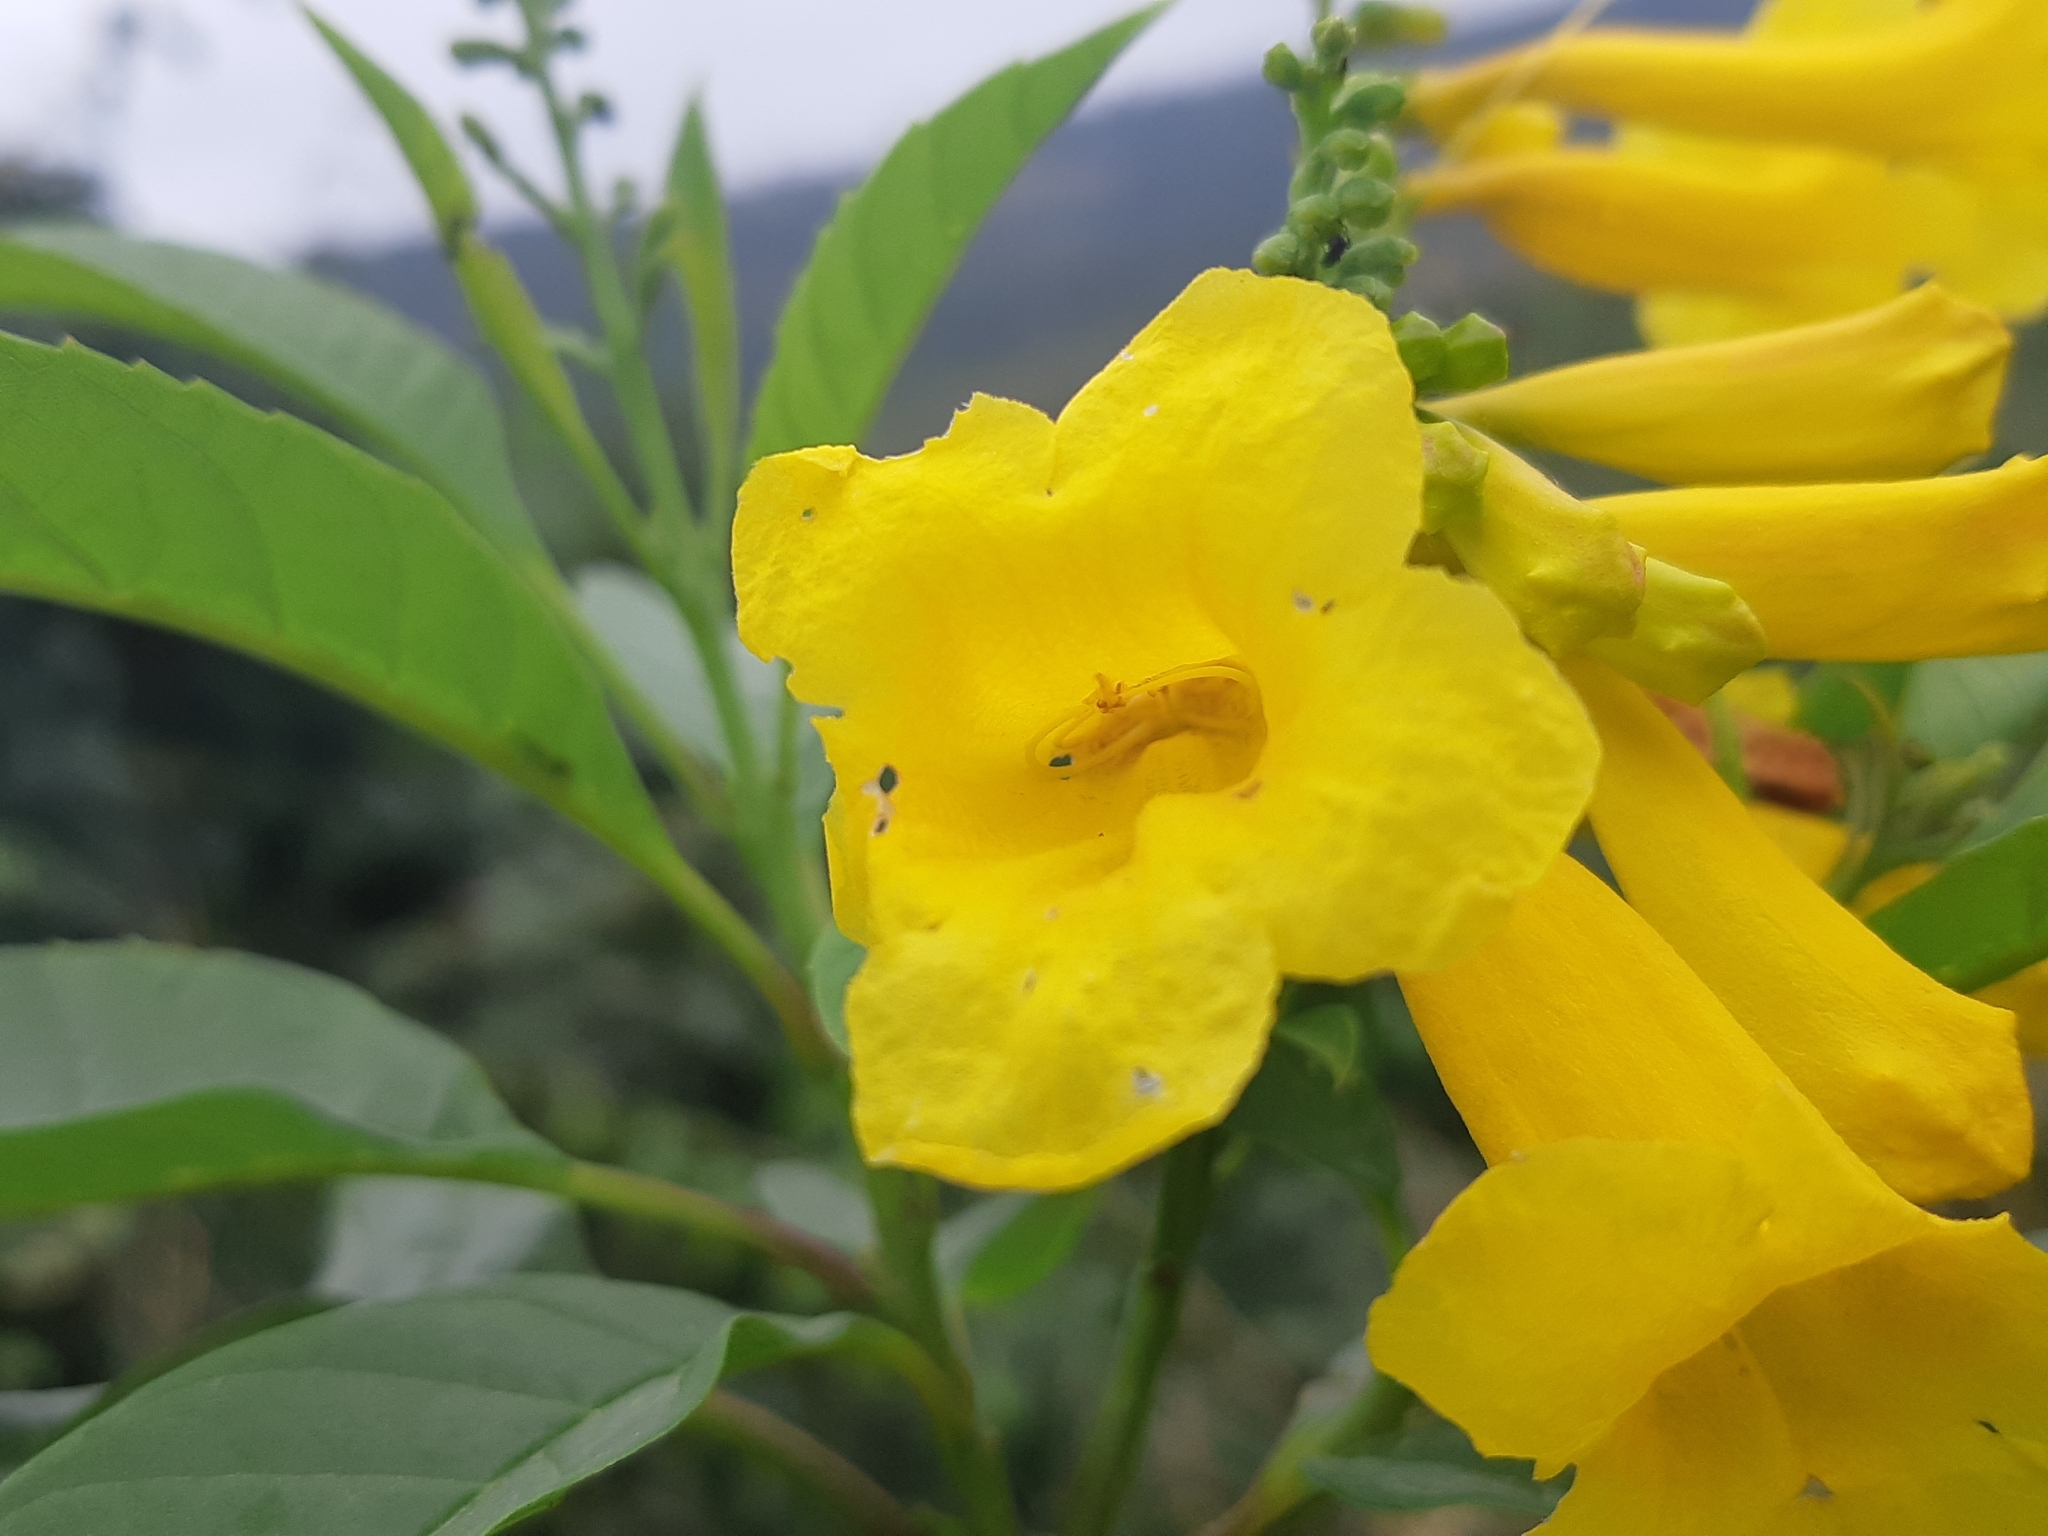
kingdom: Plantae
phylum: Tracheophyta
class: Magnoliopsida
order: Lamiales
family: Bignoniaceae
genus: Tecoma
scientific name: Tecoma castanifolia
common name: Chestnutleaf trumpetbush
